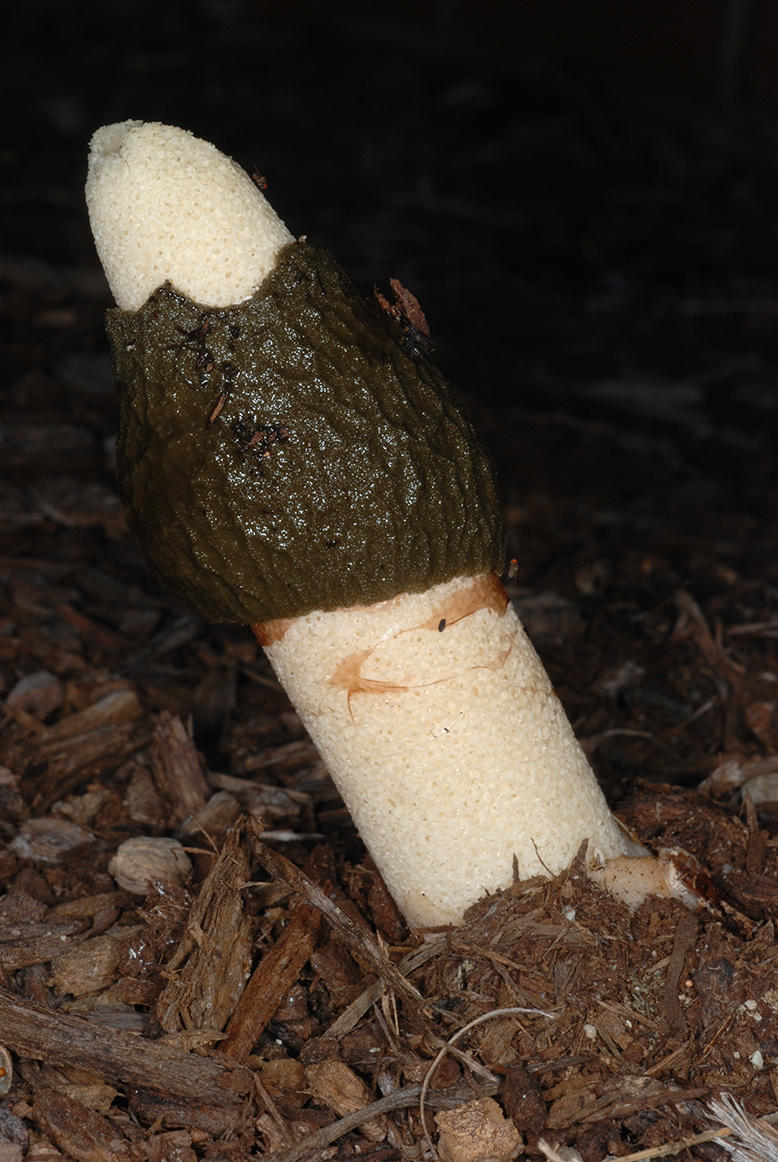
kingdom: Fungi
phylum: Basidiomycota
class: Agaricomycetes
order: Phallales
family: Phallaceae
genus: Phallus
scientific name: Phallus ravenelii
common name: Ravenel's stinkhorn
